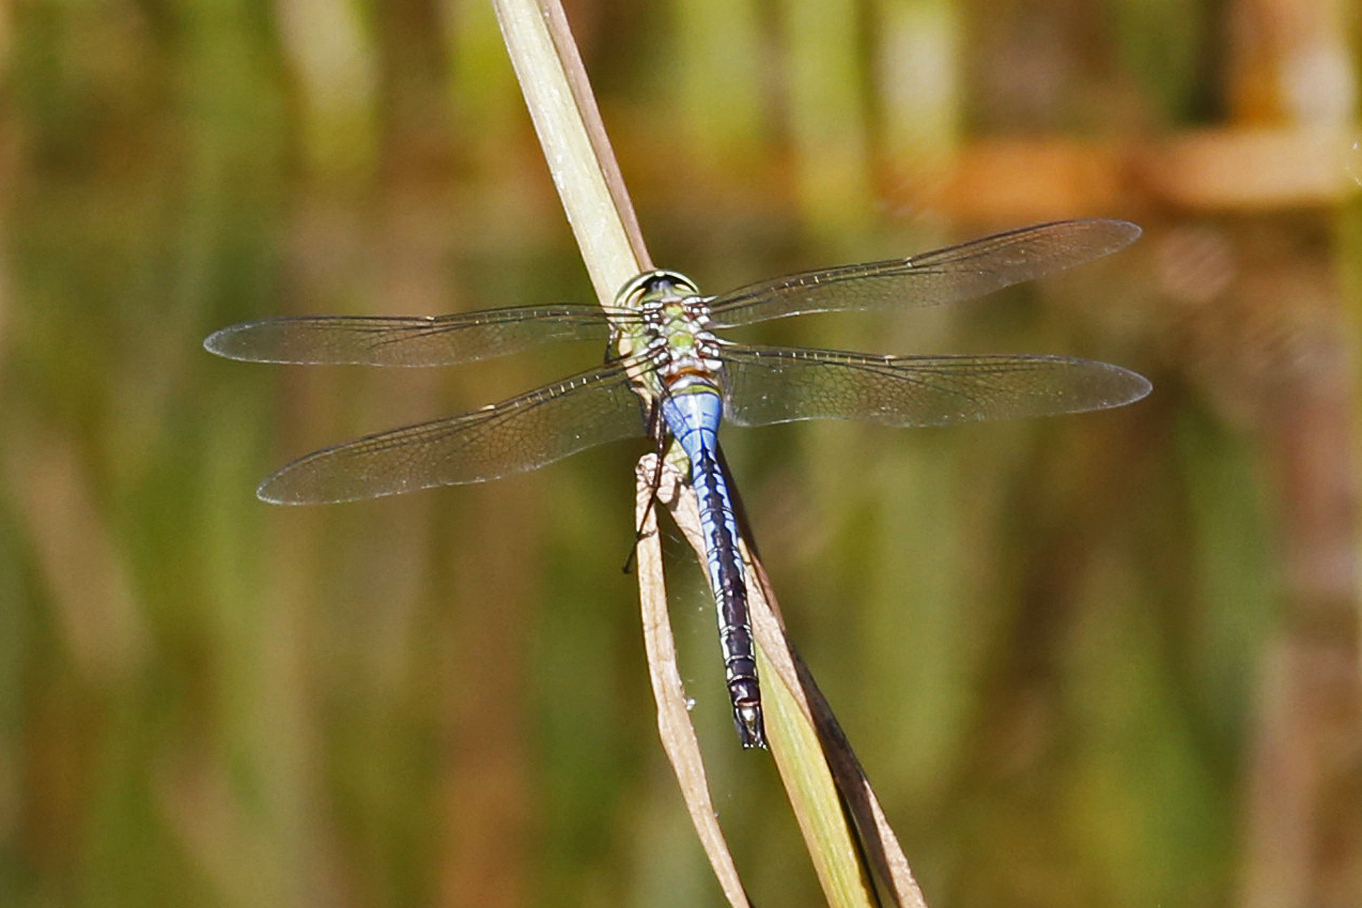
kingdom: Animalia
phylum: Arthropoda
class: Insecta
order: Odonata
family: Aeshnidae
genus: Anax
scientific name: Anax junius
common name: Common green darner
